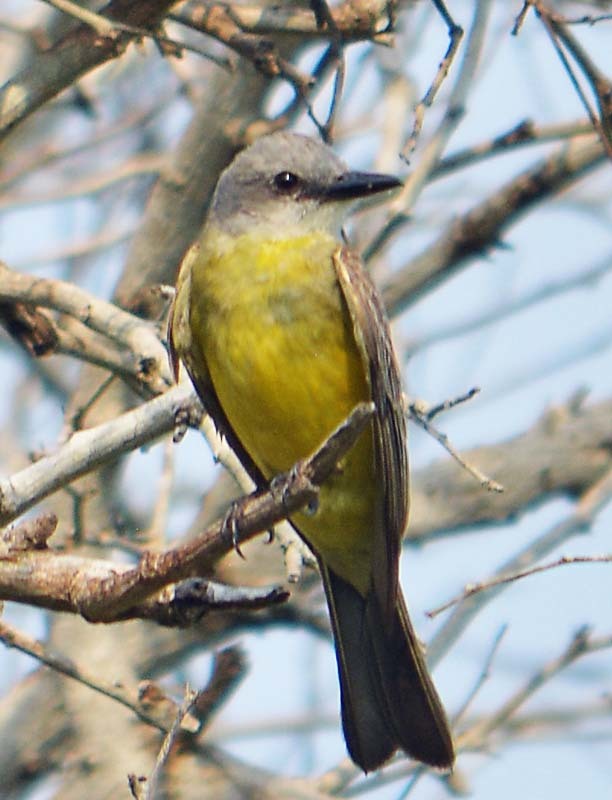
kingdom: Animalia
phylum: Chordata
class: Aves
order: Passeriformes
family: Tyrannidae
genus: Tyrannus
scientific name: Tyrannus melancholicus
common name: Tropical kingbird
